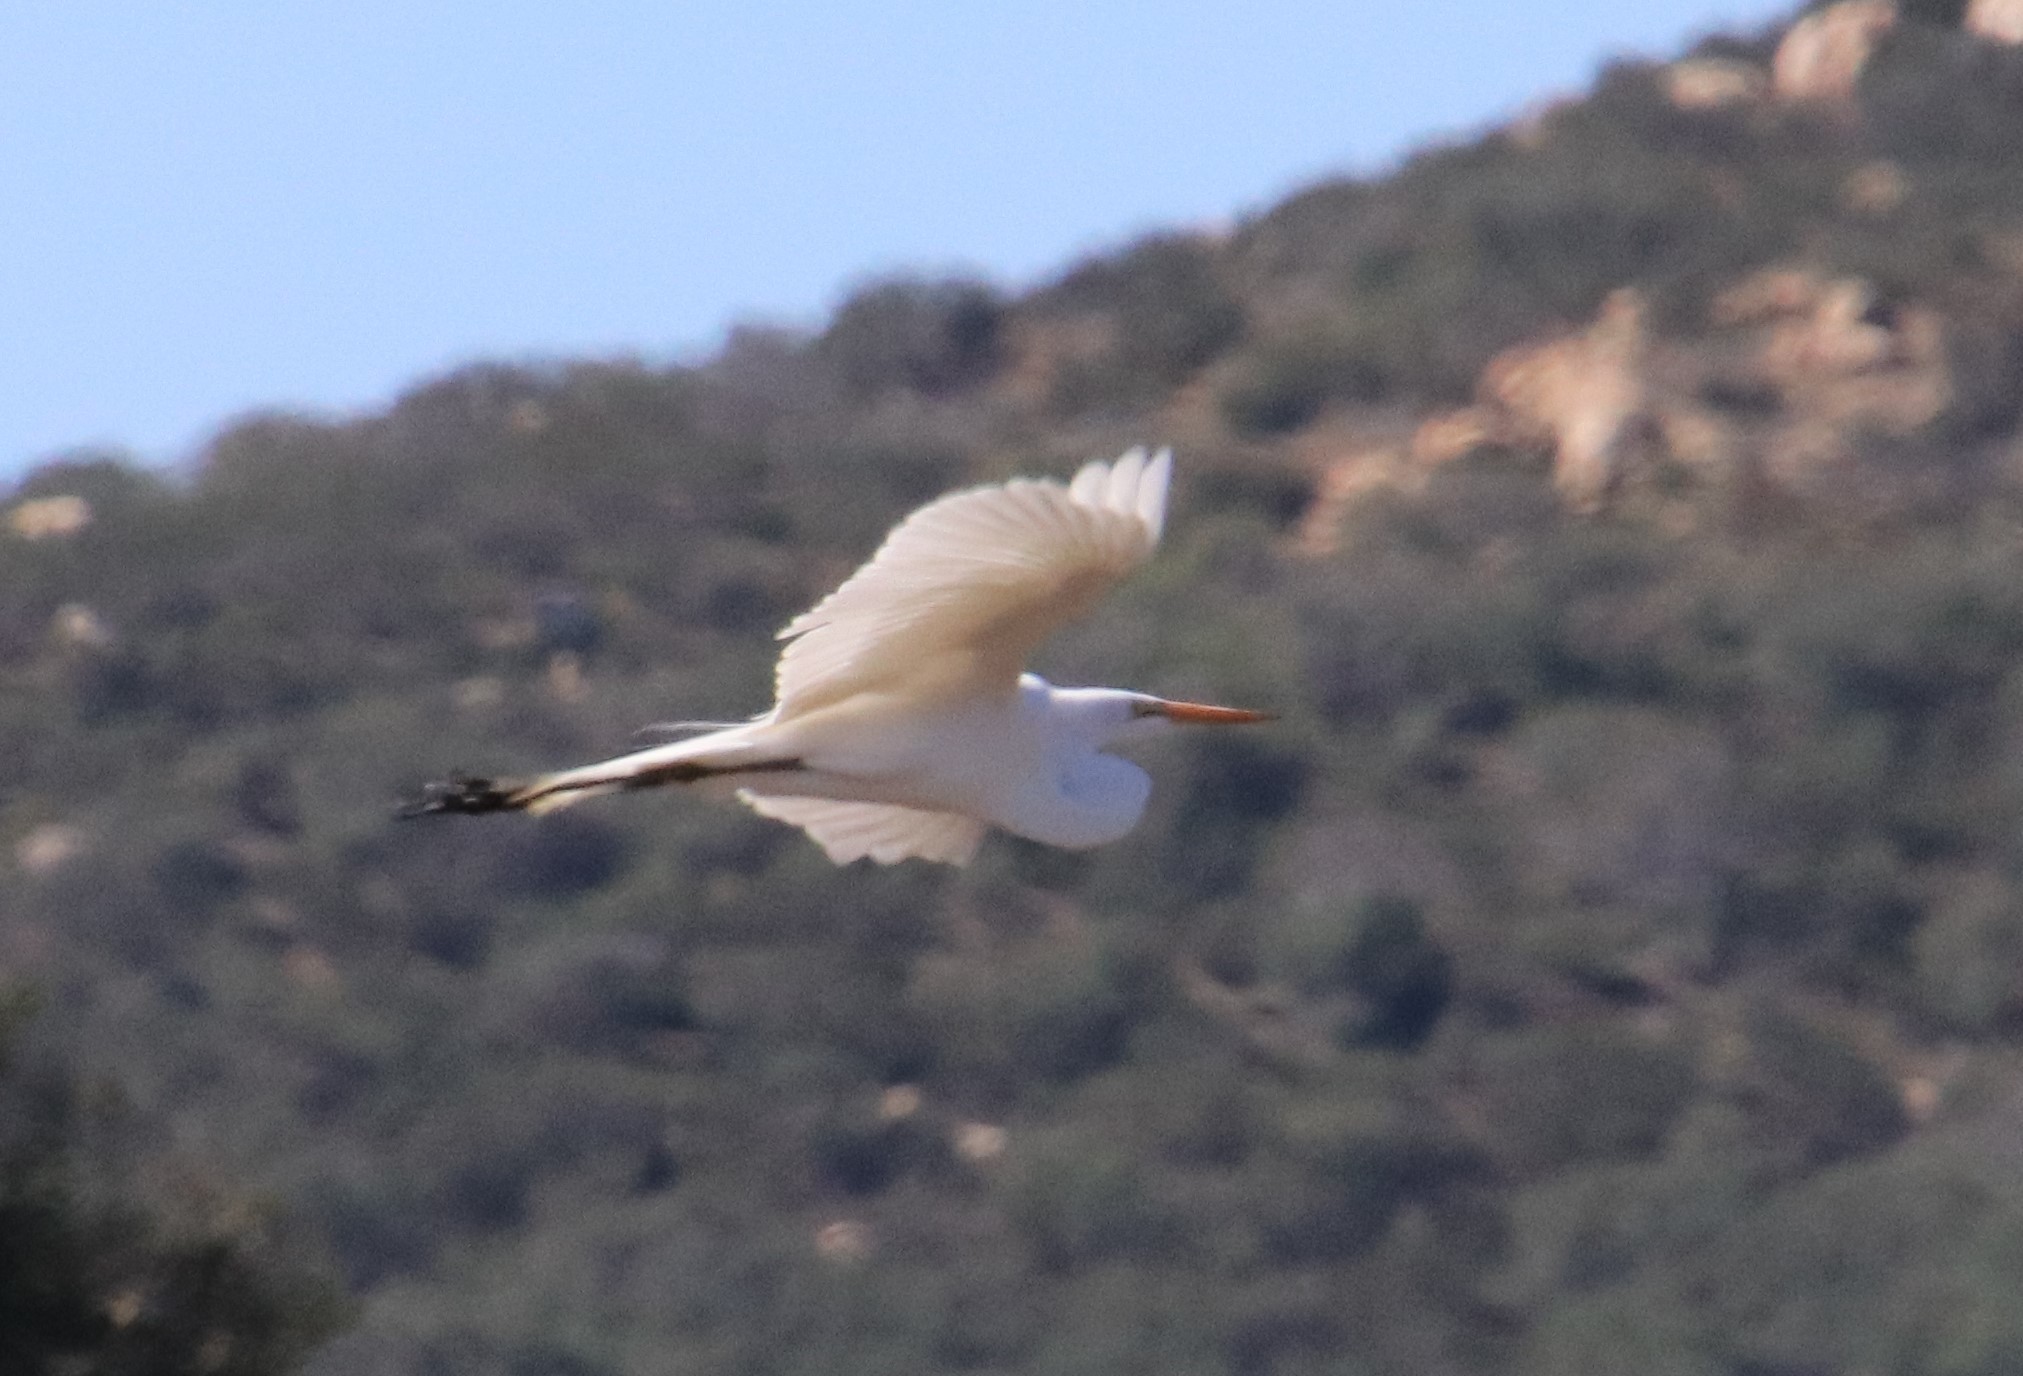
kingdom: Animalia
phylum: Chordata
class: Aves
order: Pelecaniformes
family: Ardeidae
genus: Ardea
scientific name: Ardea alba
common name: Great egret
